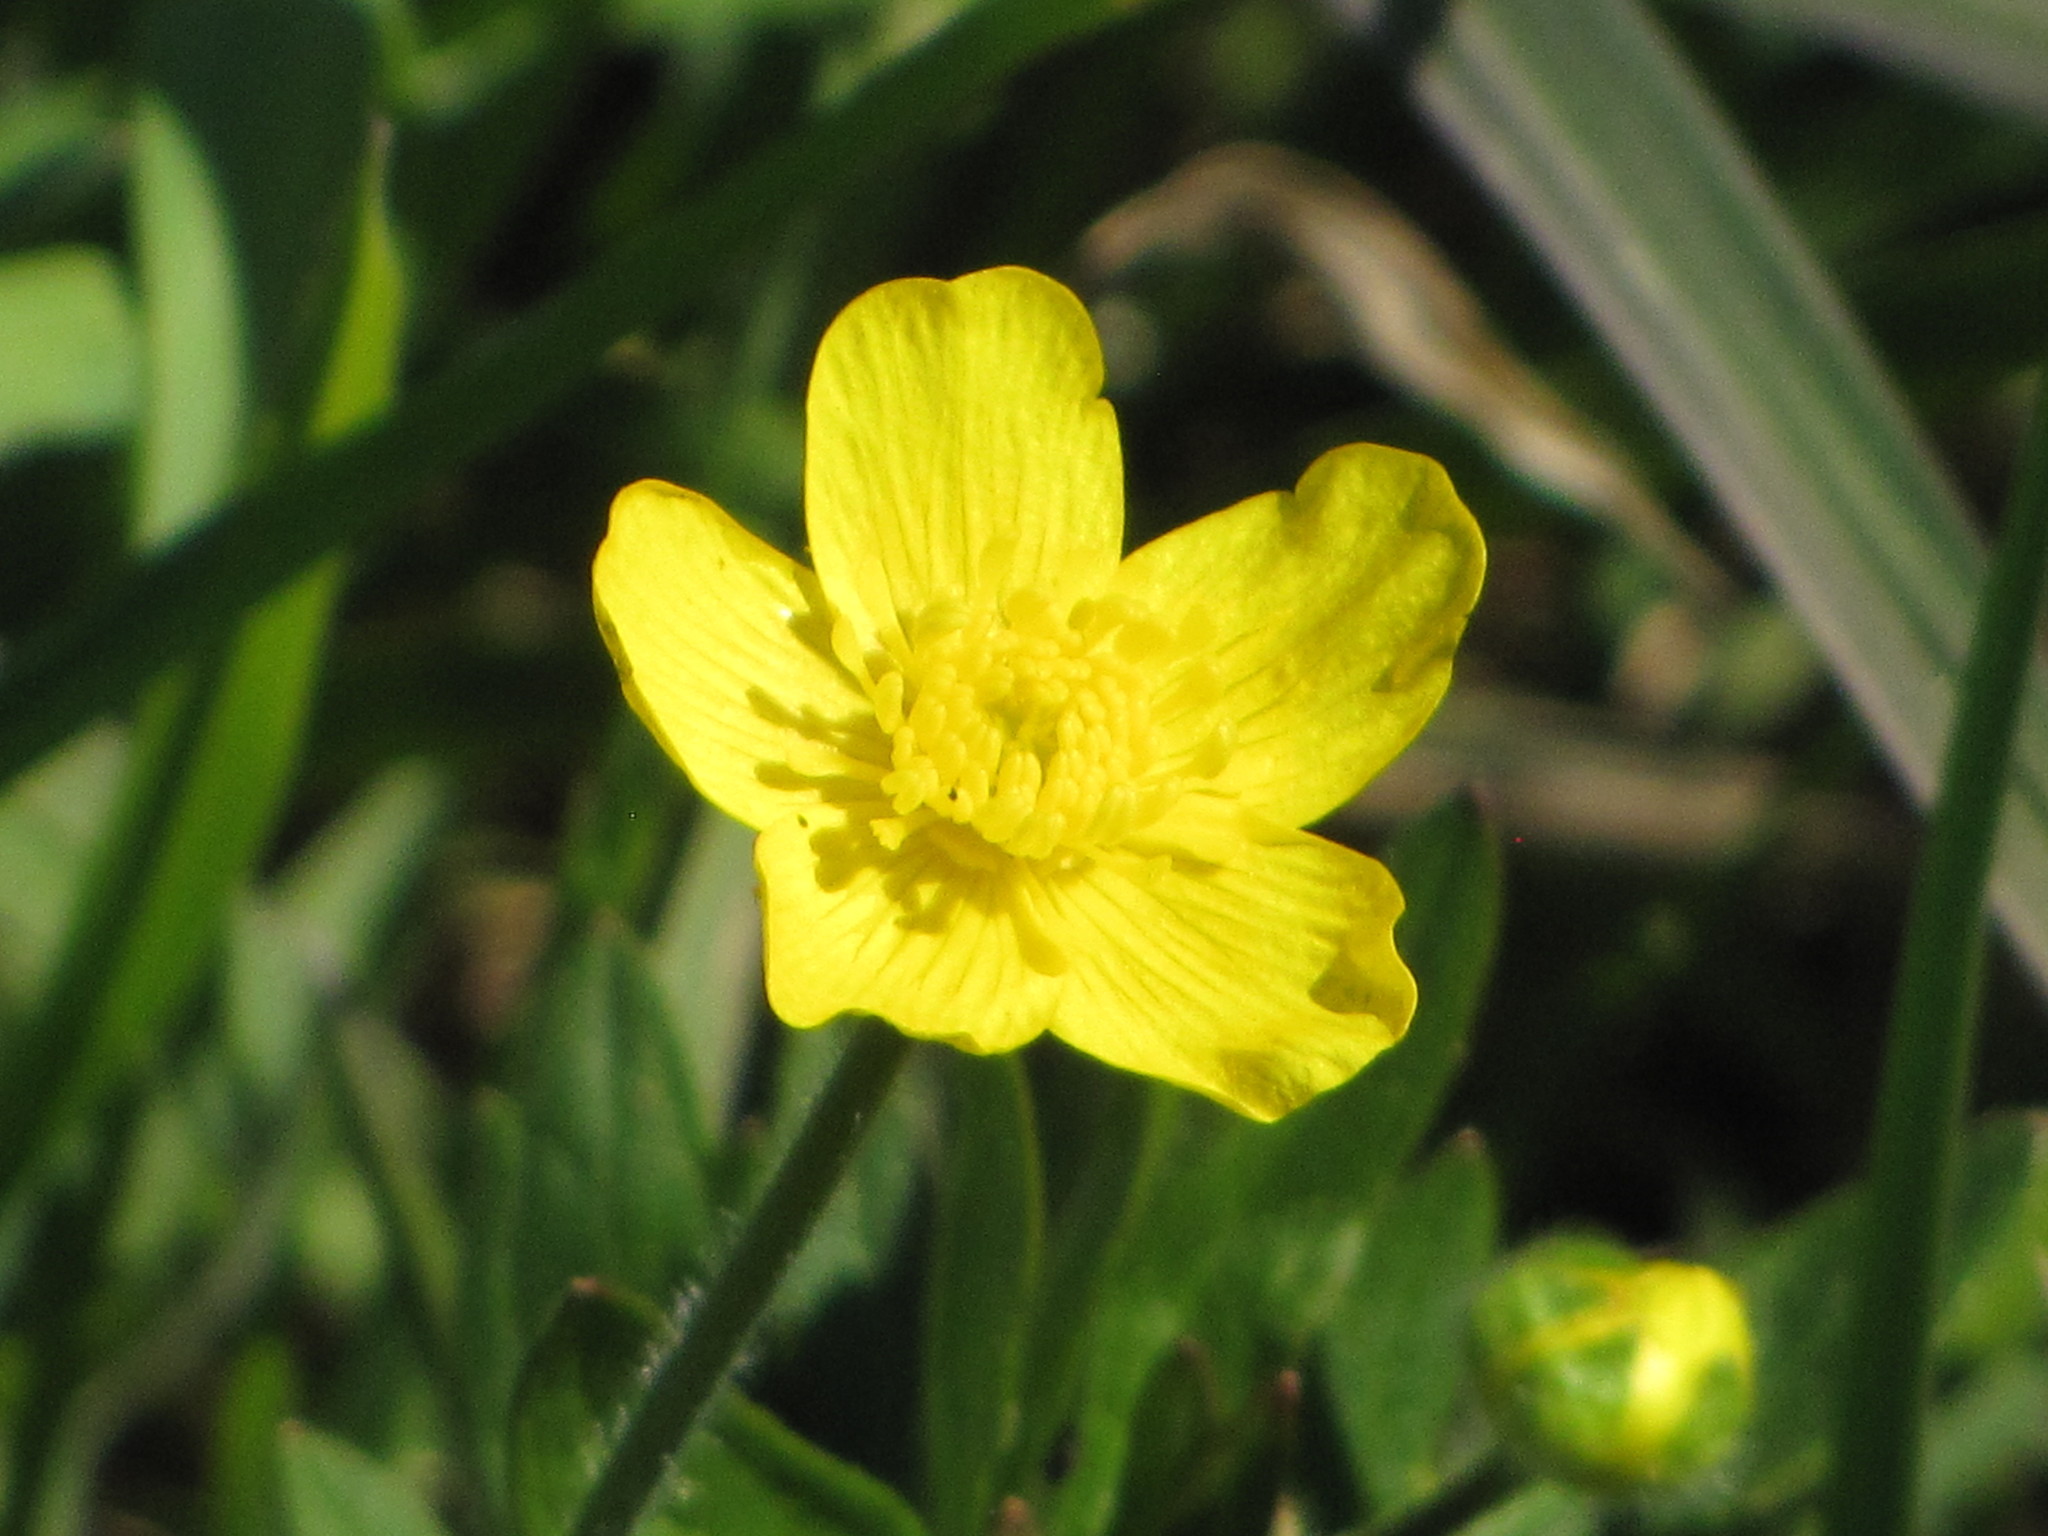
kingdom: Plantae
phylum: Tracheophyta
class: Magnoliopsida
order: Ranunculales
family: Ranunculaceae
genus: Ranunculus
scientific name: Ranunculus occidentalis
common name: Western buttercup
